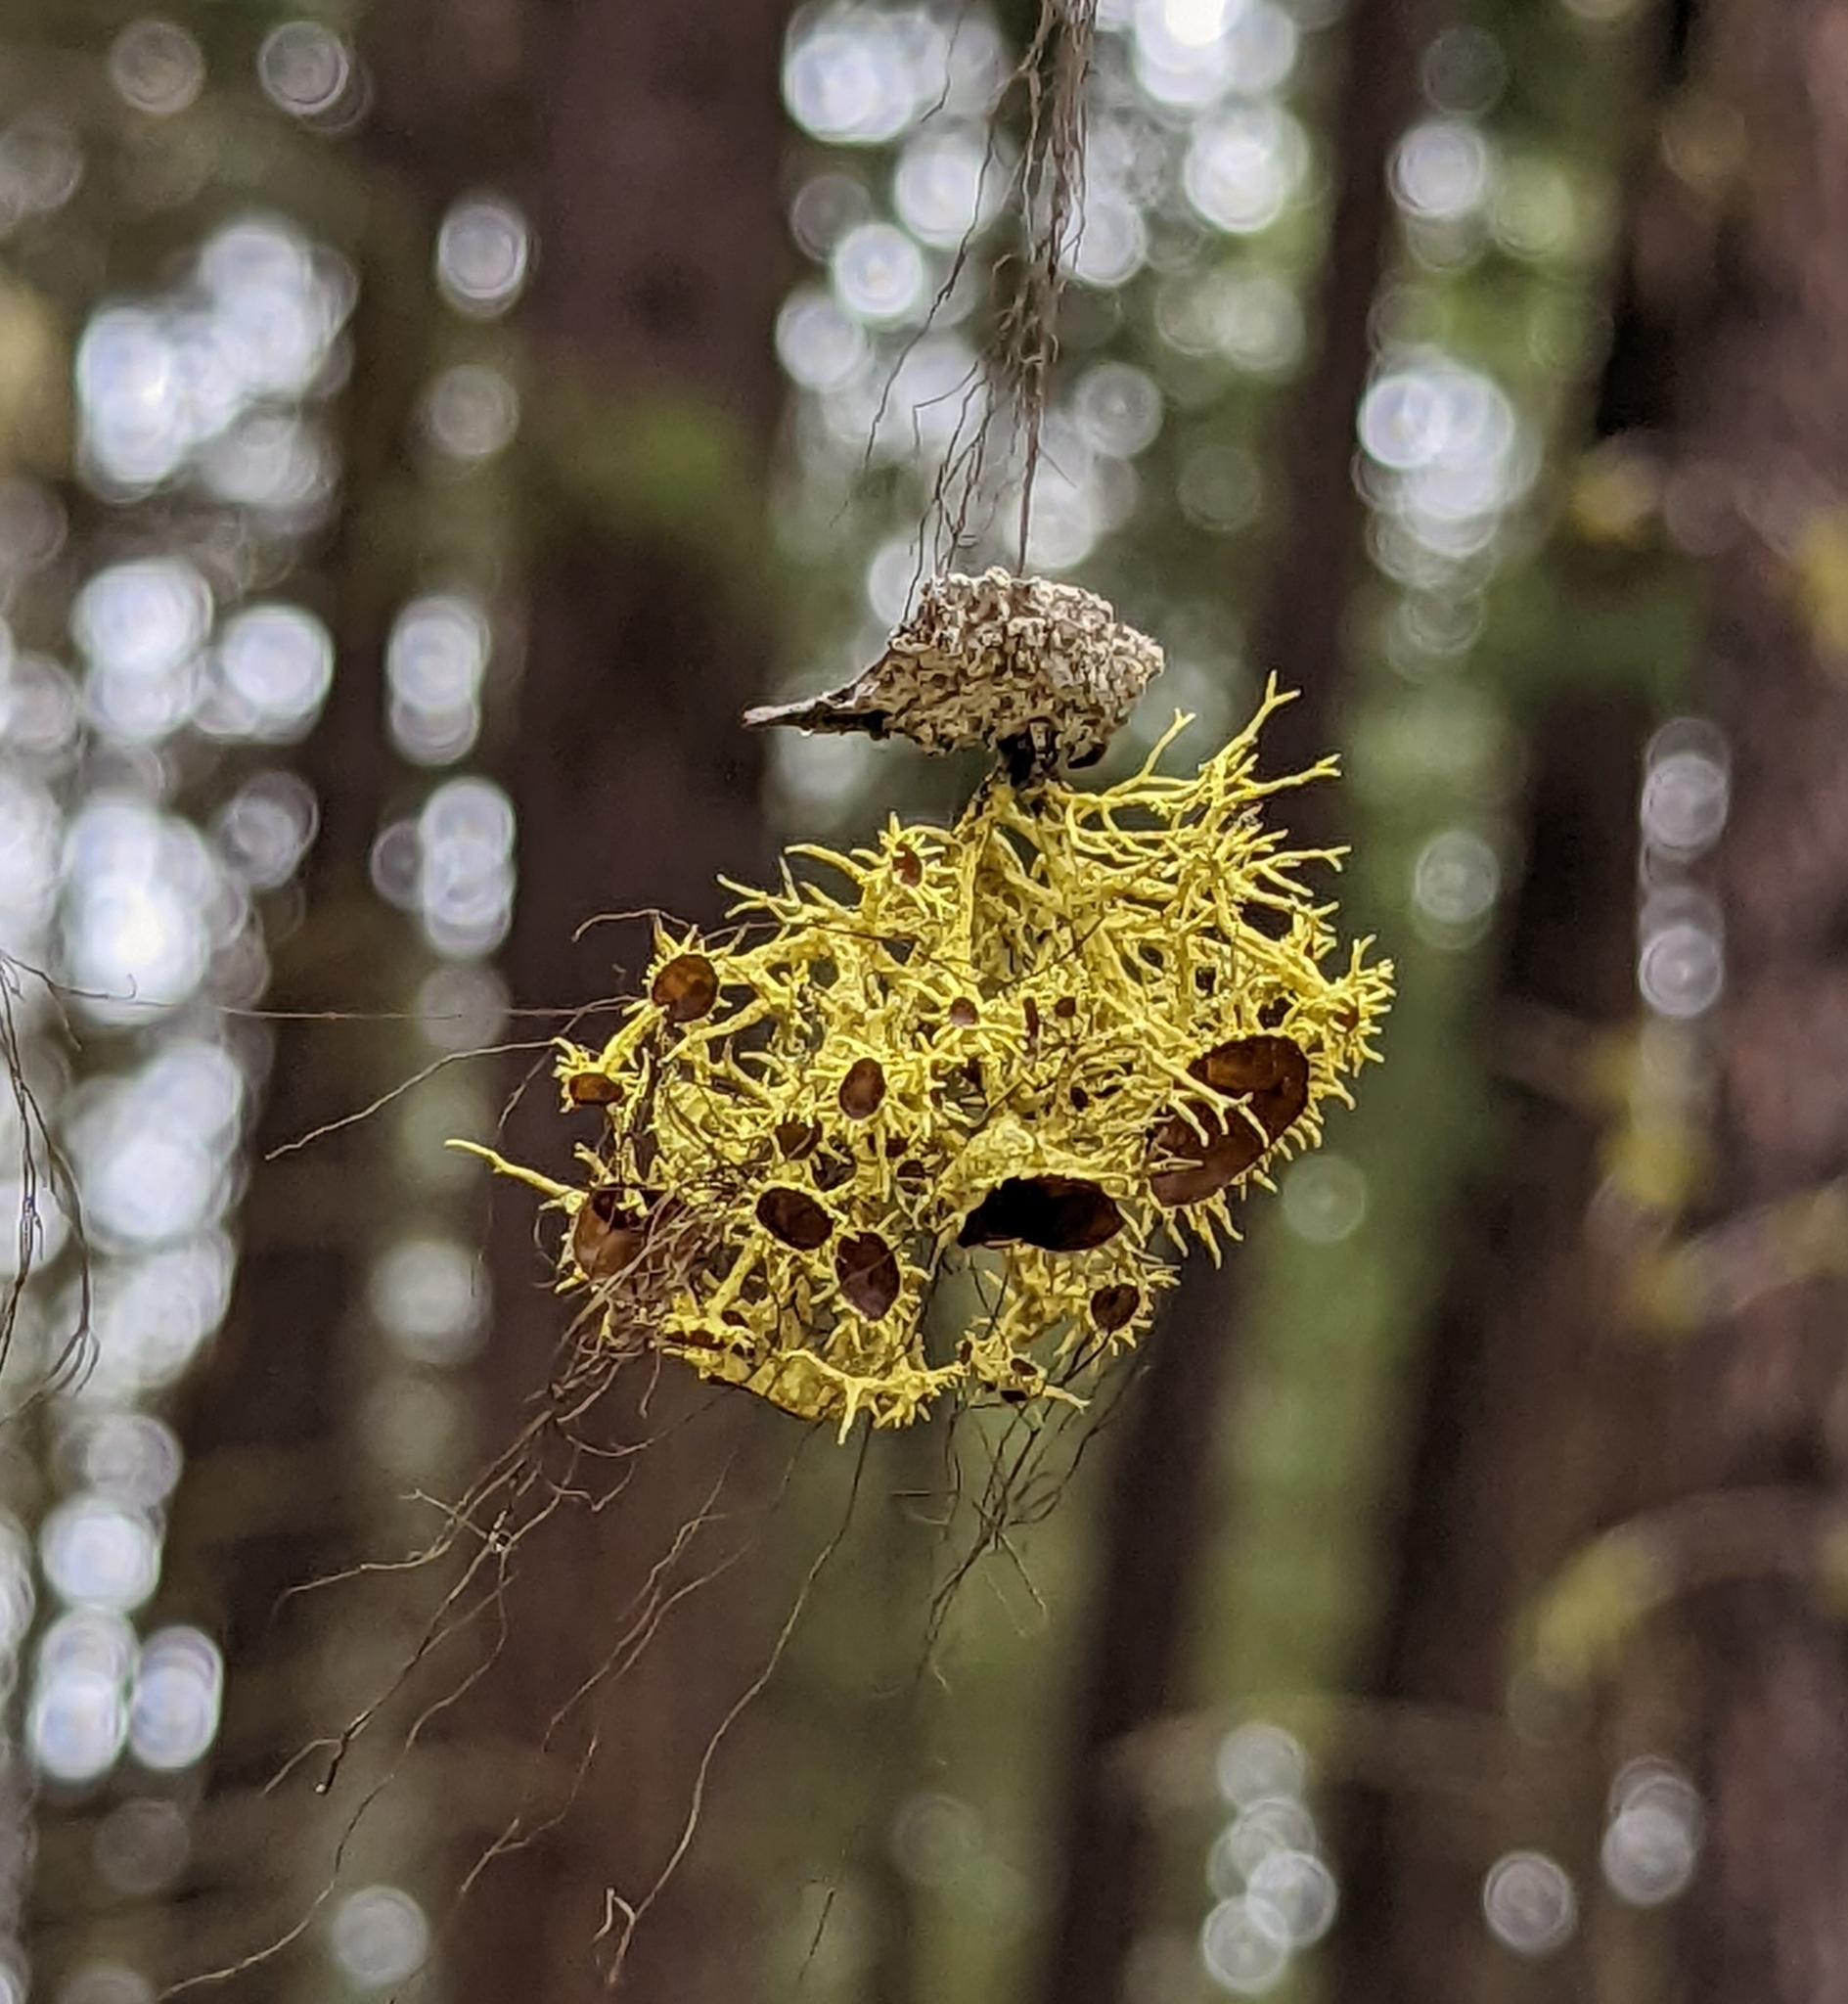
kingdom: Fungi
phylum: Ascomycota
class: Lecanoromycetes
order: Lecanorales
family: Parmeliaceae
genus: Letharia
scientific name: Letharia columbiana
